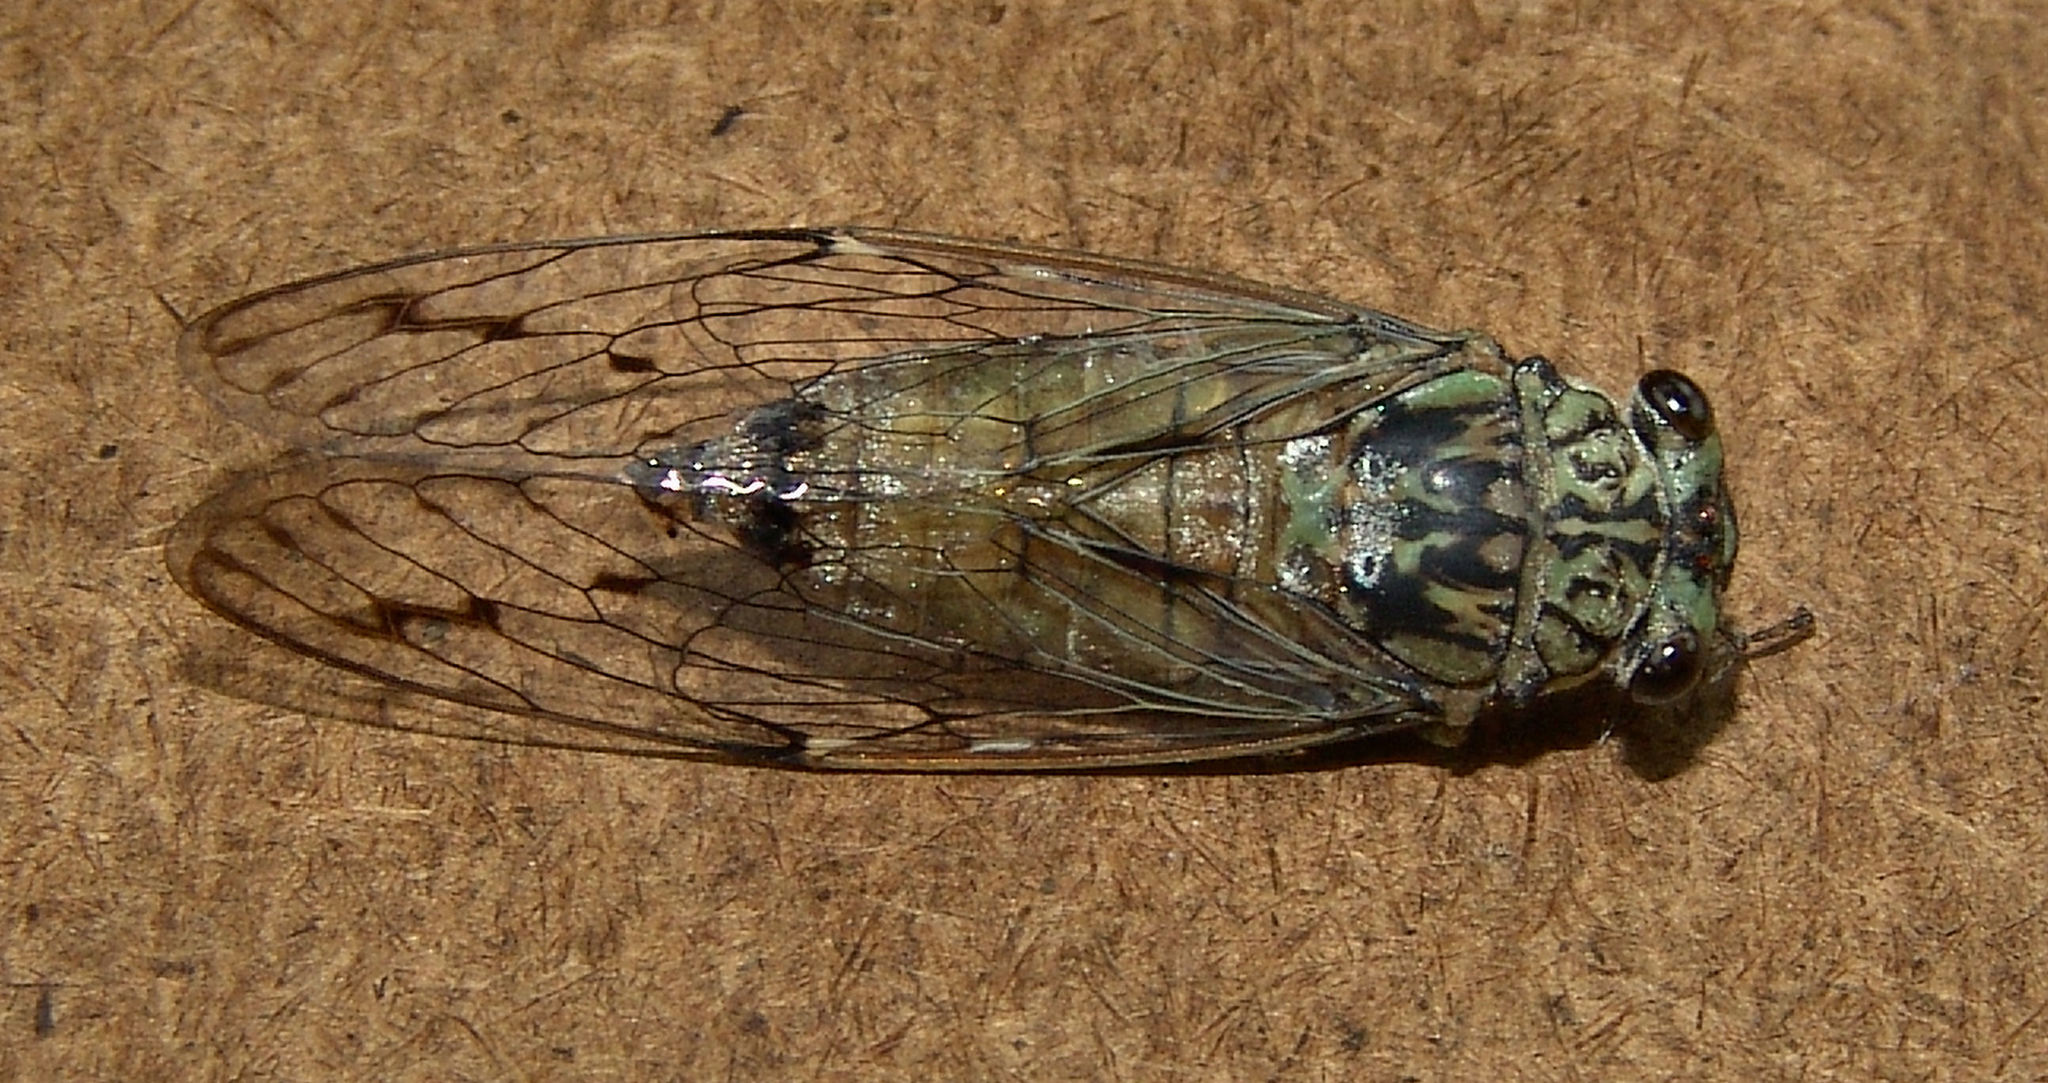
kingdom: Animalia
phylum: Arthropoda
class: Insecta
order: Hemiptera
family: Cicadidae
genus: Neocicada
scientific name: Neocicada hieroglyphica
